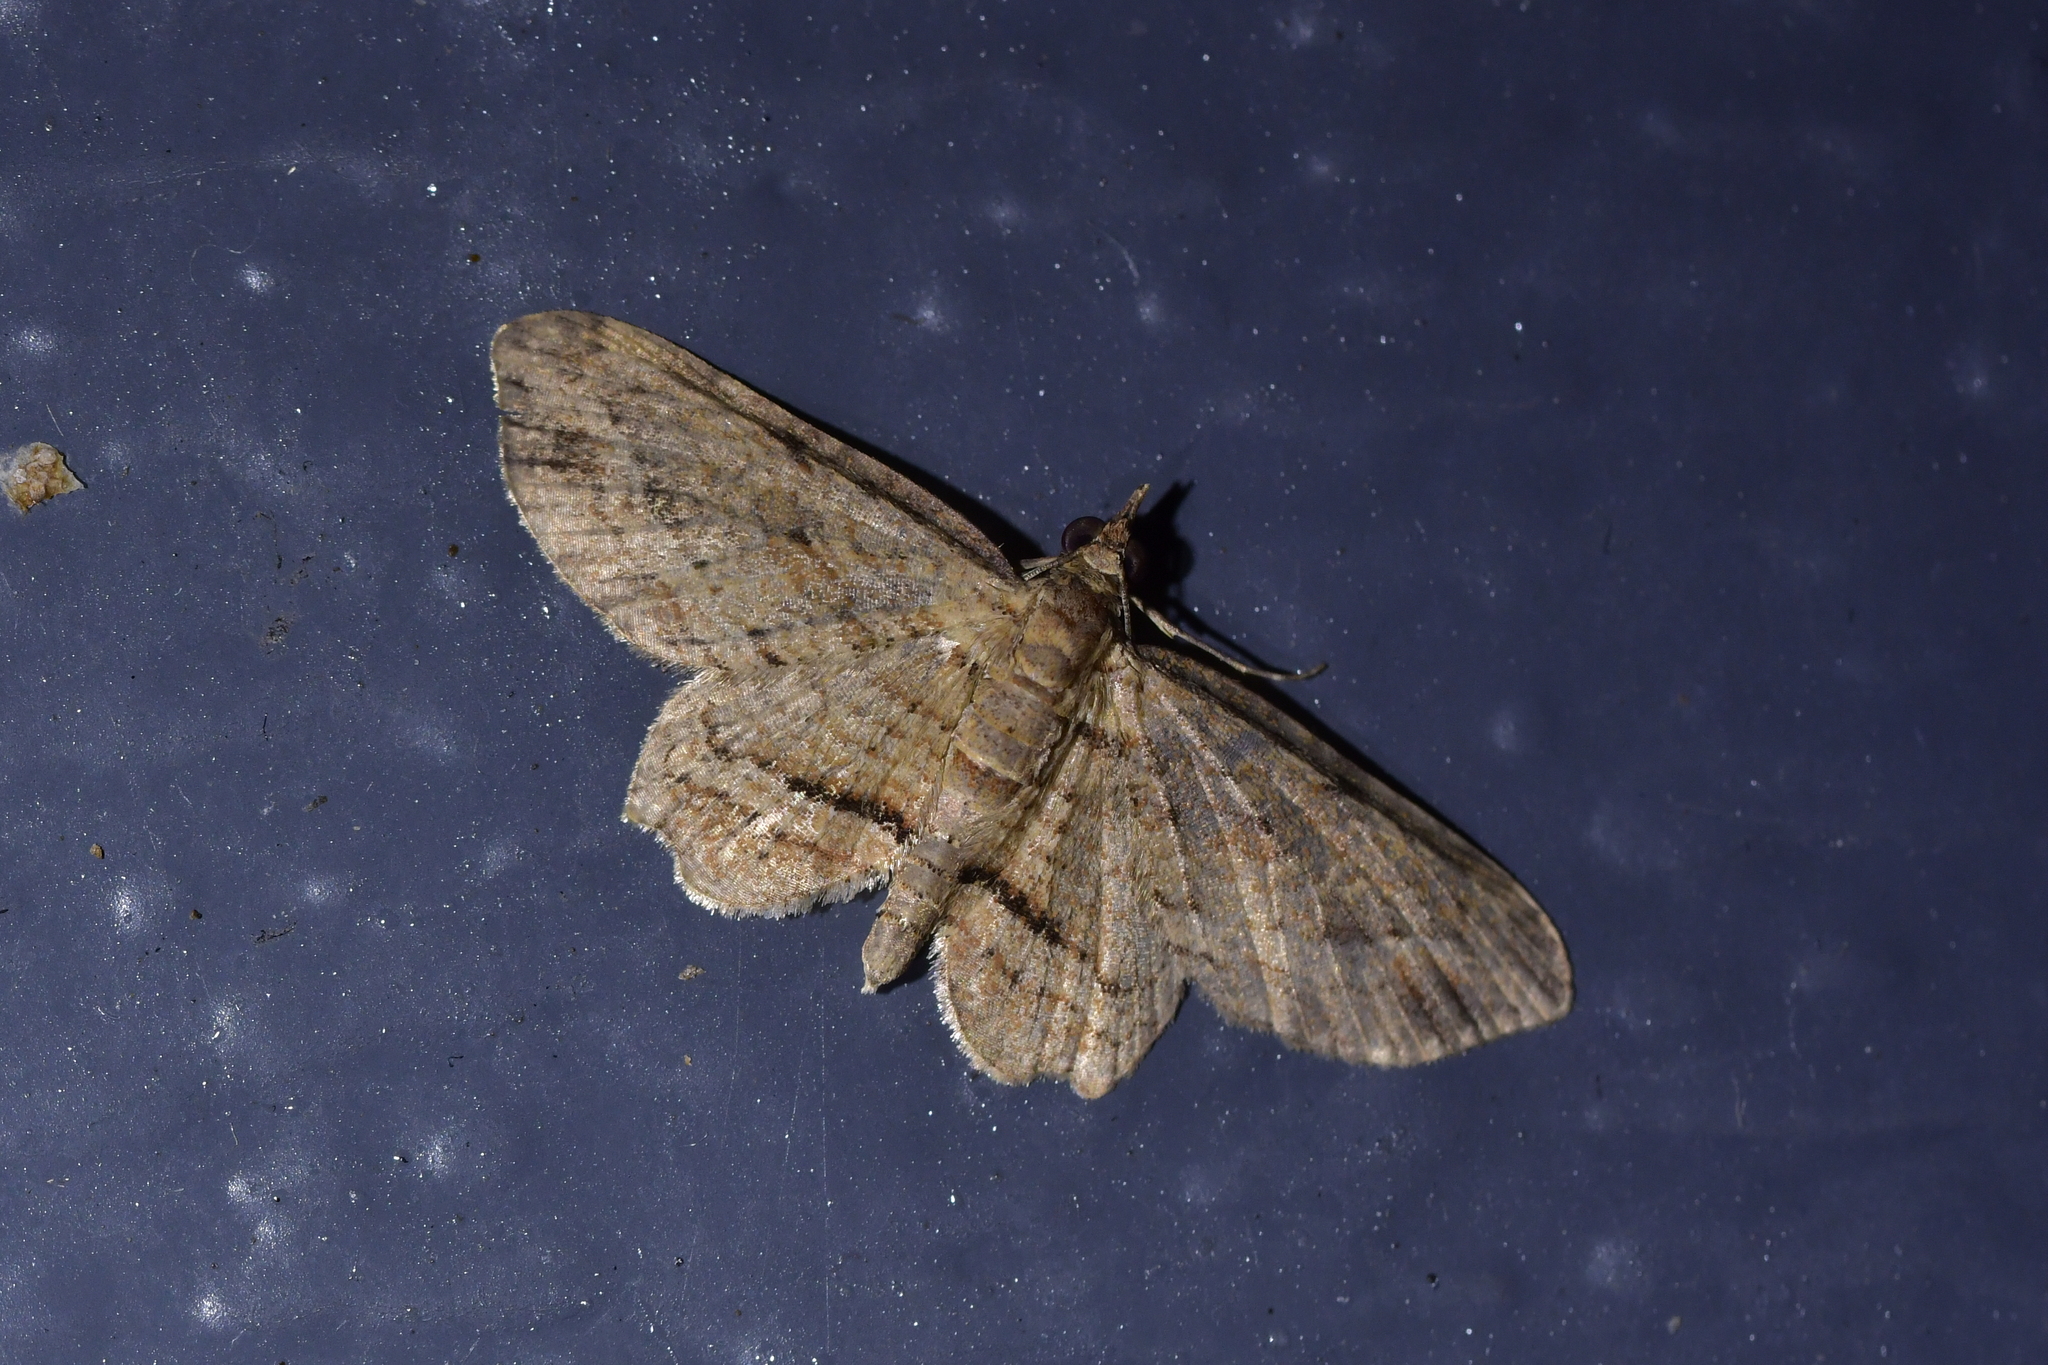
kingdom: Animalia
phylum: Arthropoda
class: Insecta
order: Lepidoptera
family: Geometridae
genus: Chloroclystis
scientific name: Chloroclystis filata
